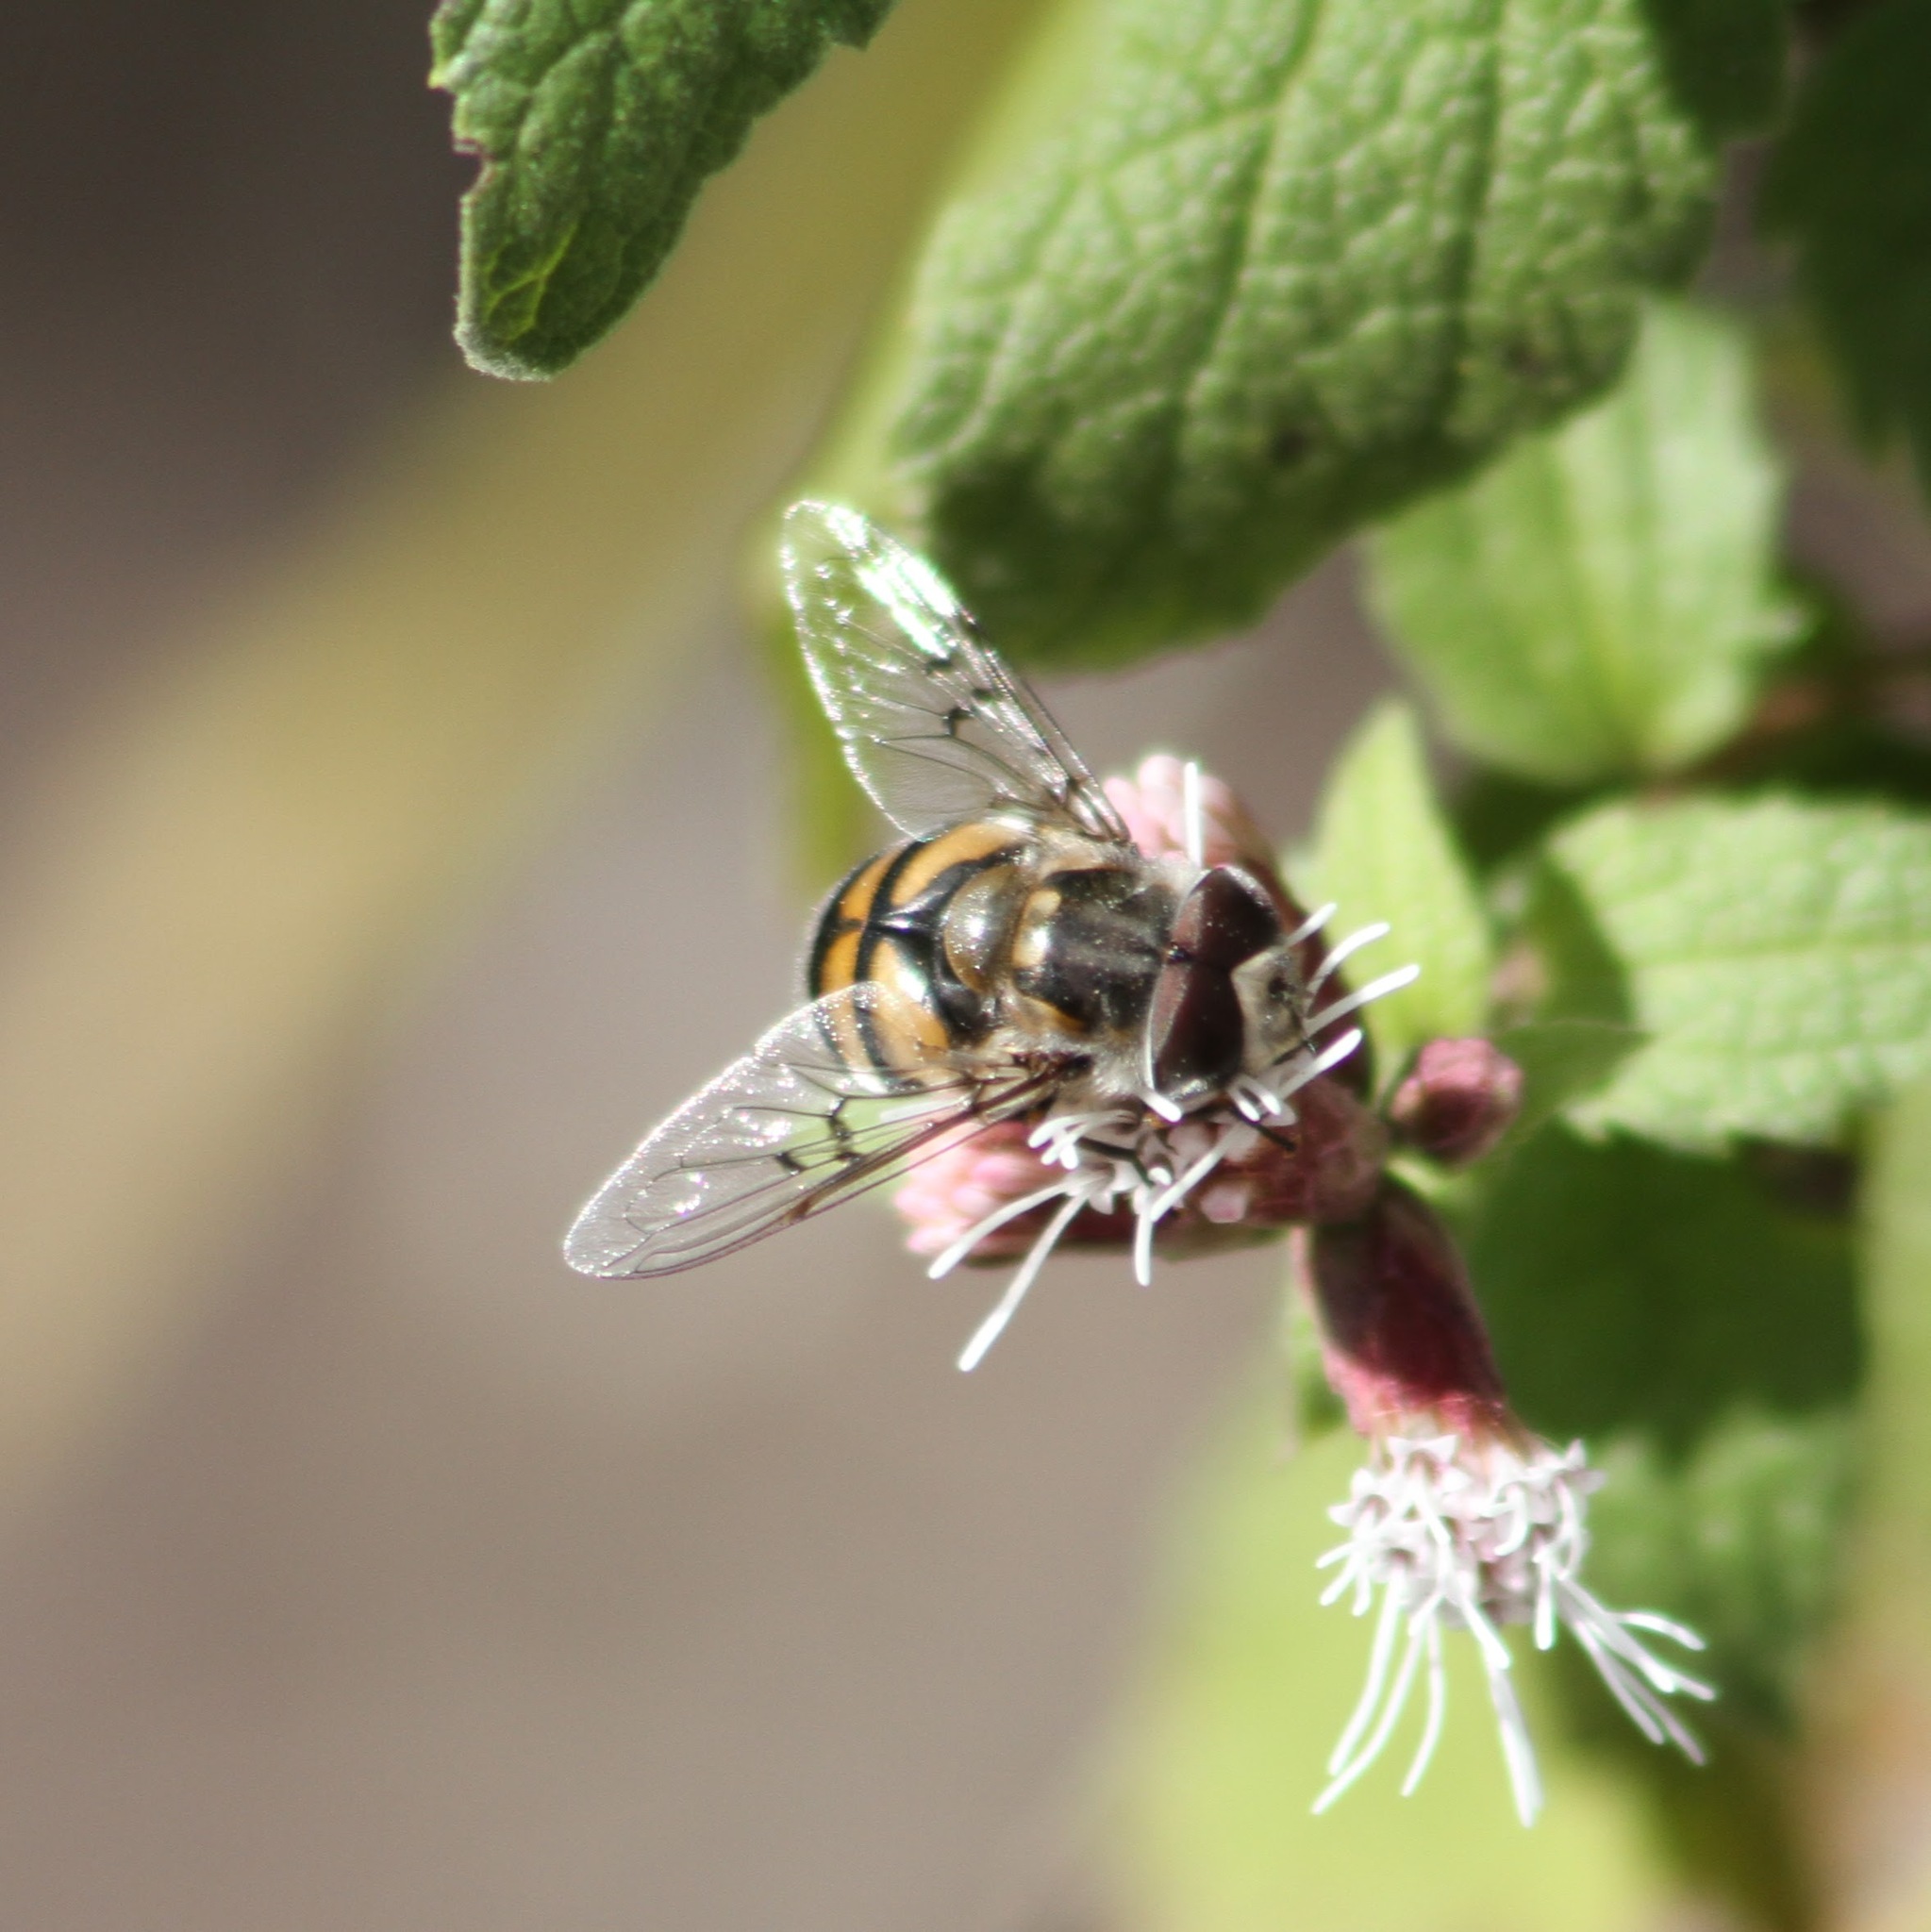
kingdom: Animalia
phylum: Arthropoda
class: Insecta
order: Diptera
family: Syrphidae
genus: Copestylum
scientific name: Copestylum avidum
